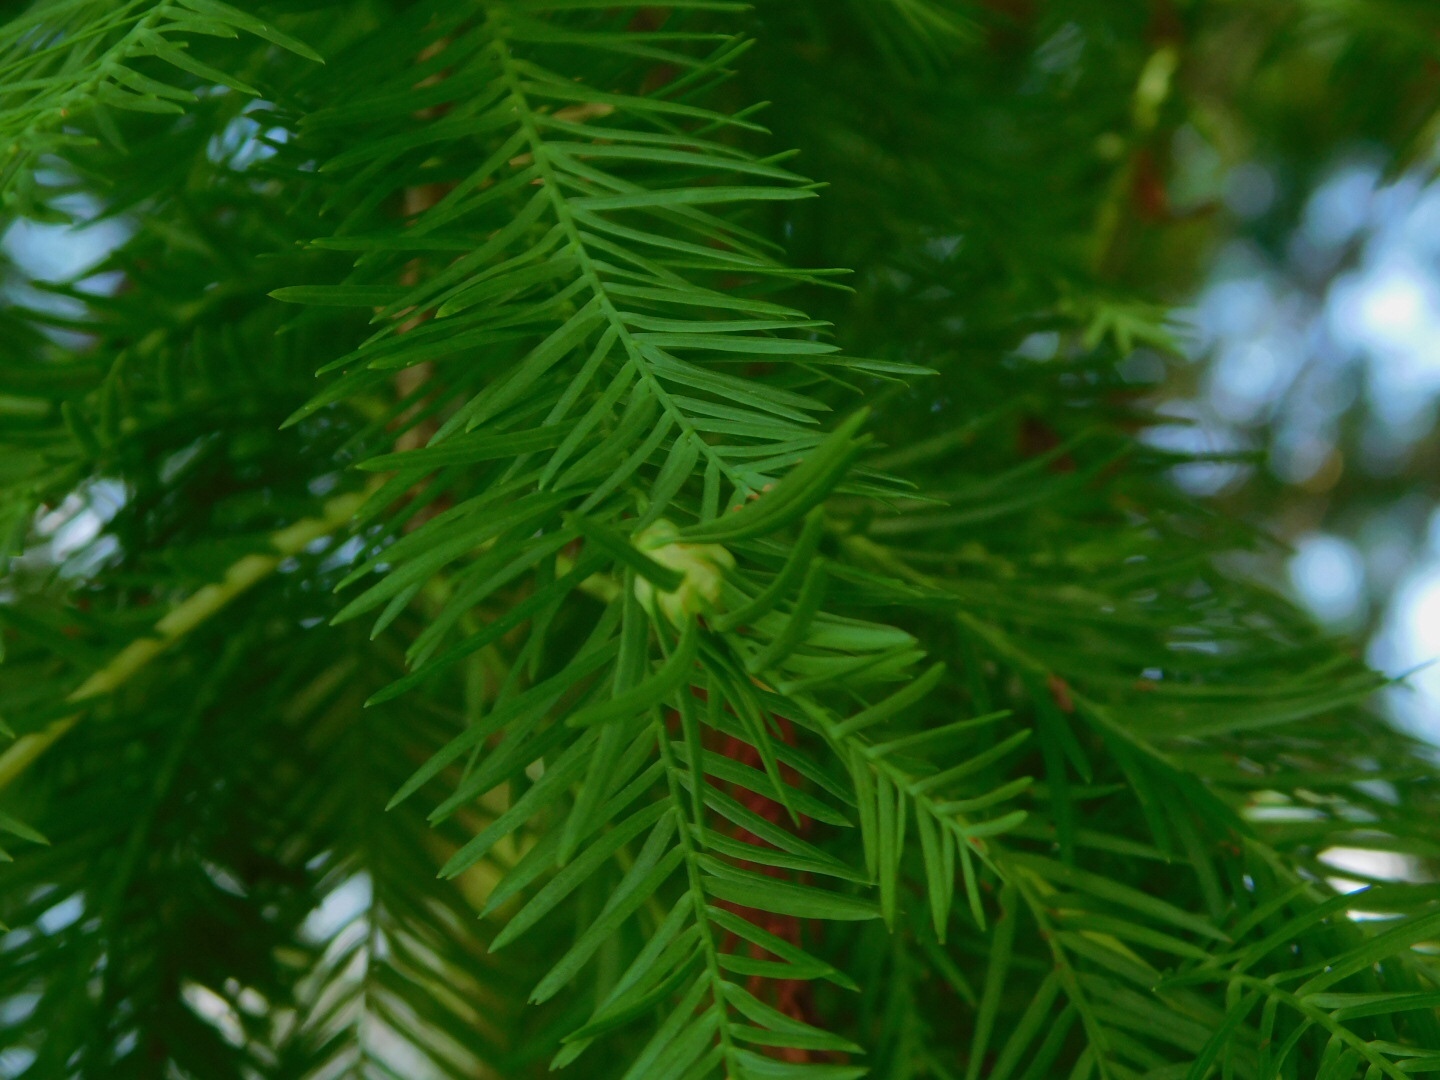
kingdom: Animalia
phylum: Arthropoda
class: Insecta
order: Diptera
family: Cecidomyiidae
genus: Taxodiomyia
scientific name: Taxodiomyia cupressiananassa
